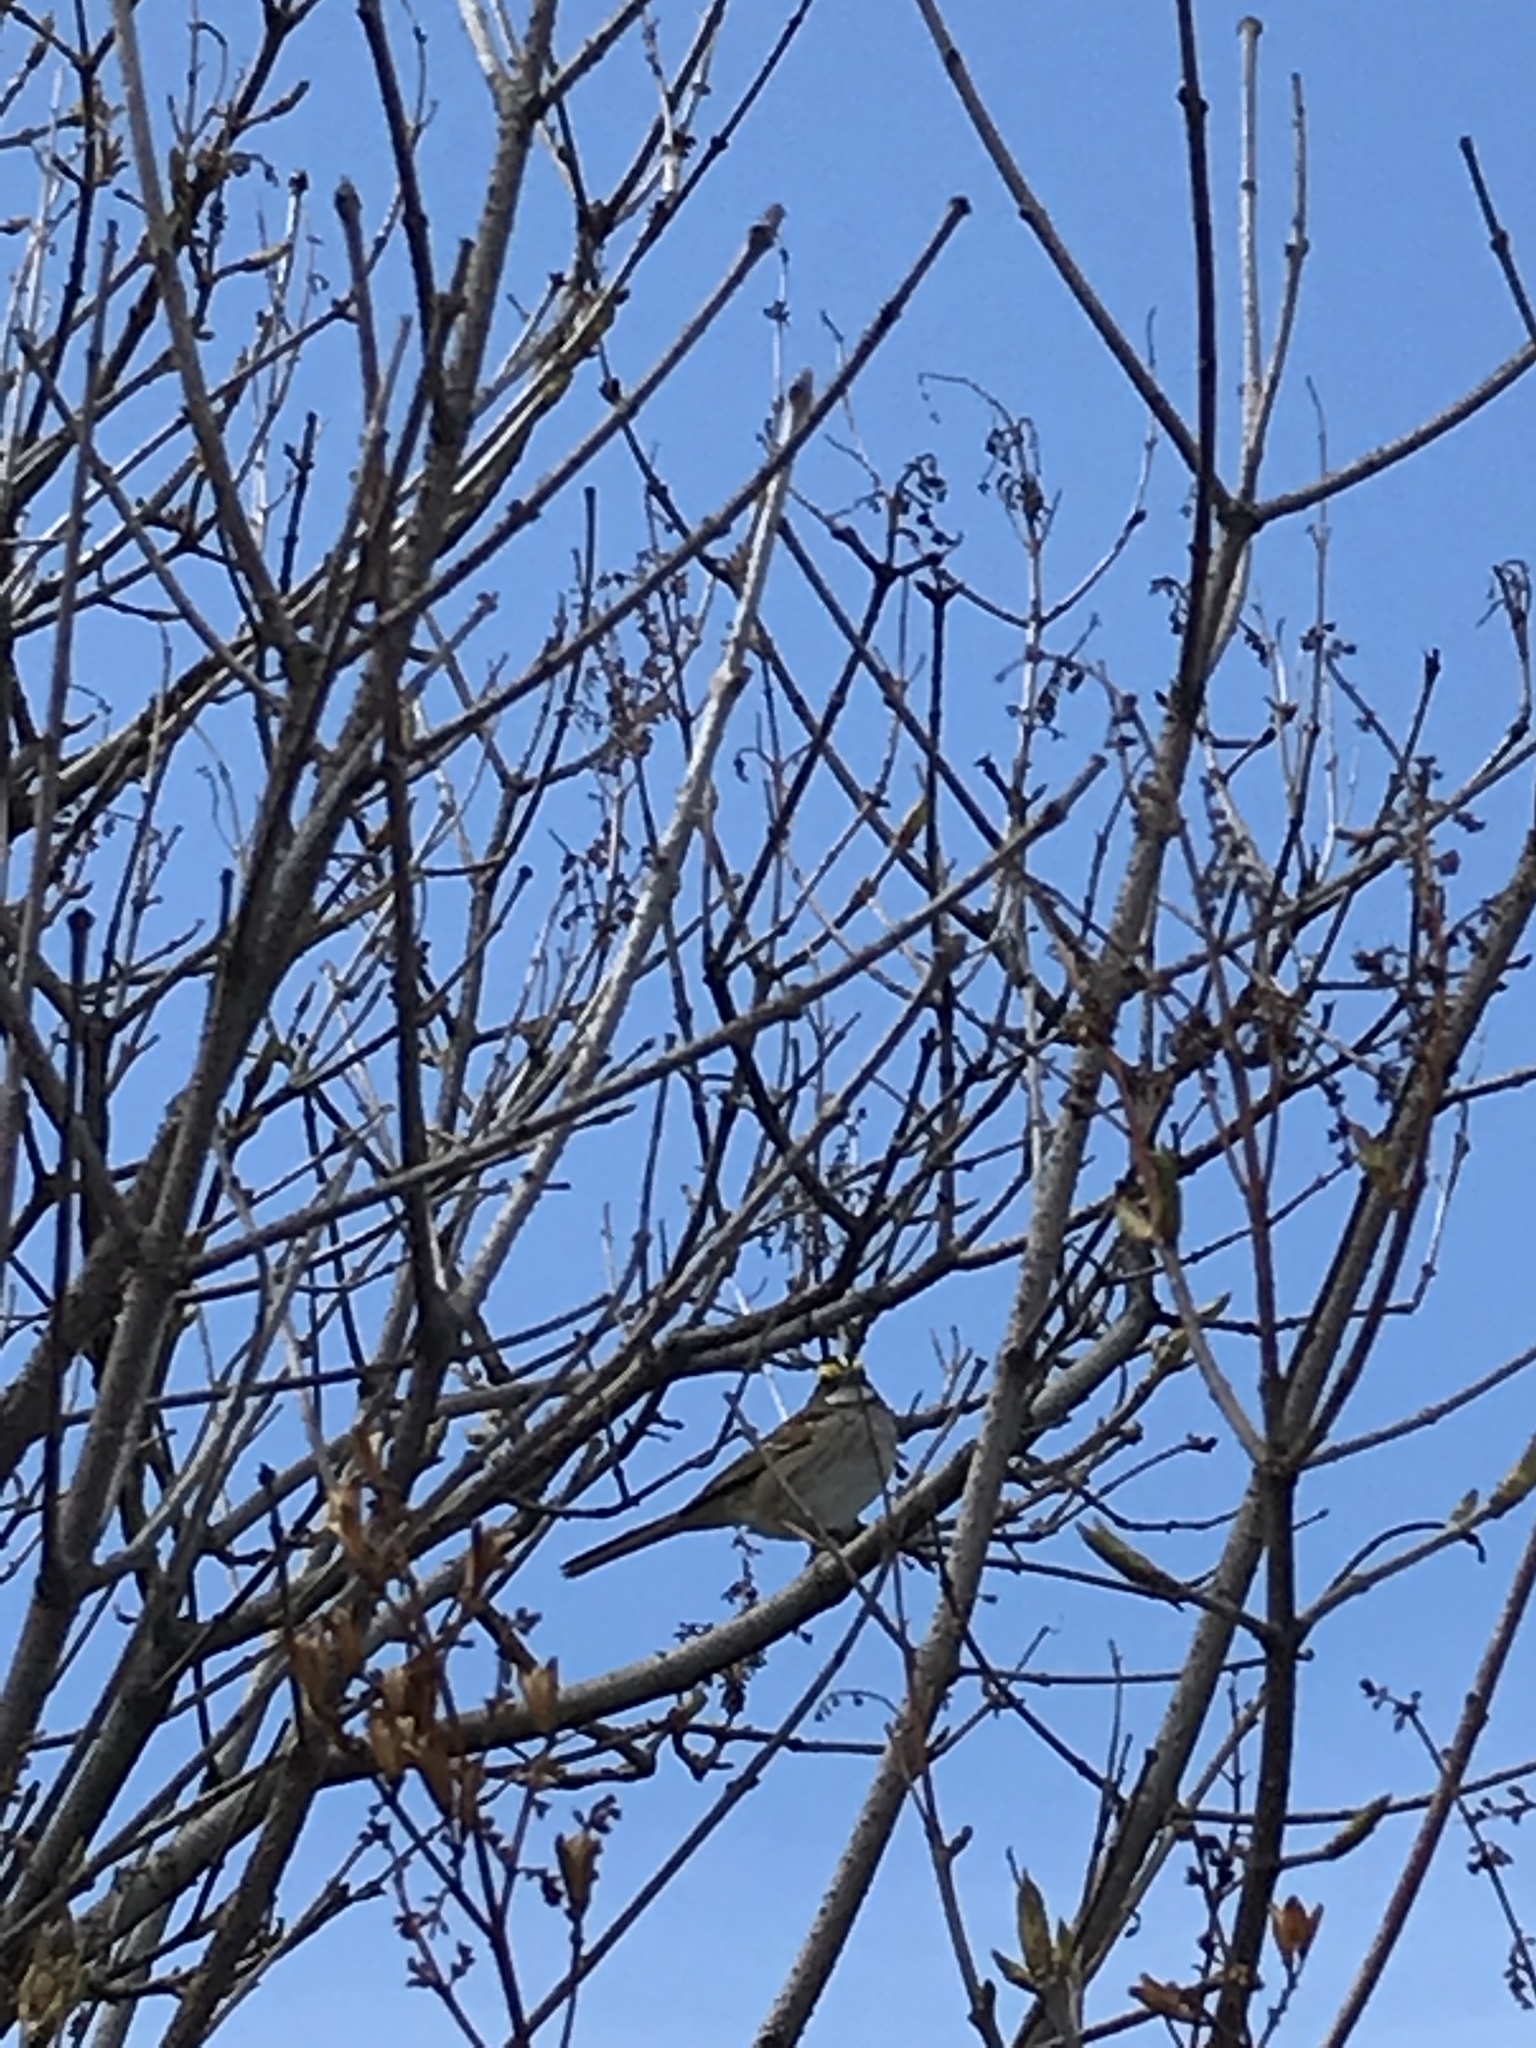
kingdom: Animalia
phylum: Chordata
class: Aves
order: Passeriformes
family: Passerellidae
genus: Zonotrichia
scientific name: Zonotrichia albicollis
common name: White-throated sparrow
